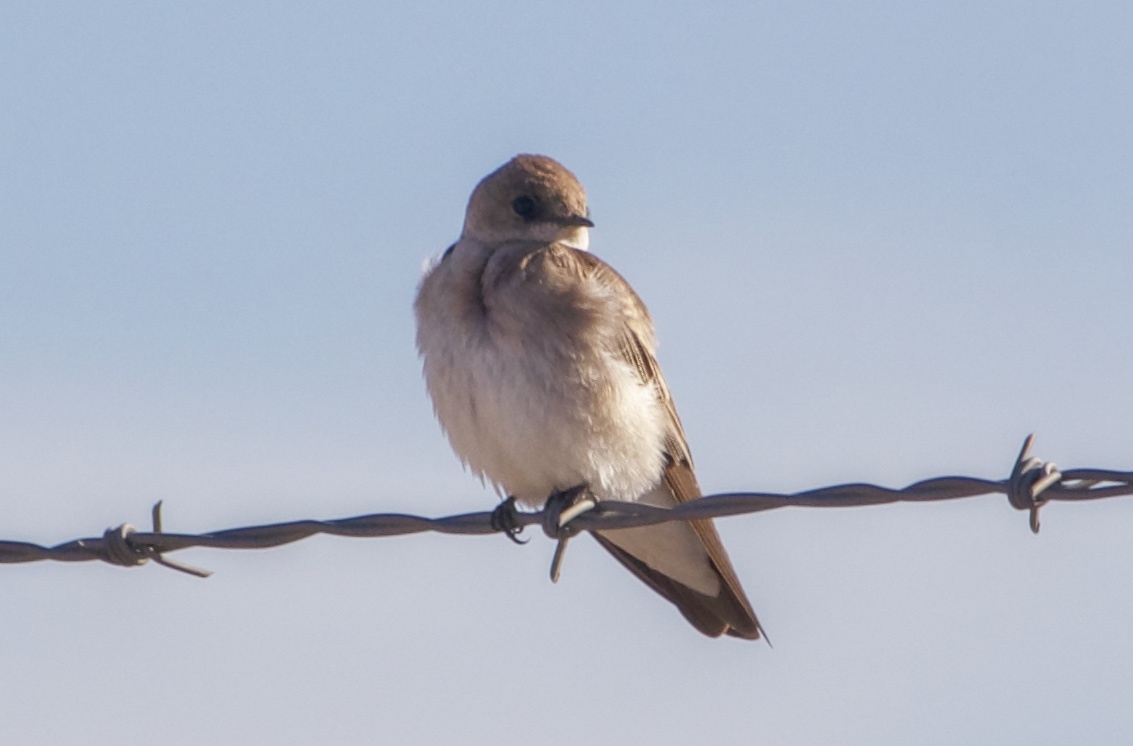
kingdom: Animalia
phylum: Chordata
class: Aves
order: Passeriformes
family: Hirundinidae
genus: Stelgidopteryx
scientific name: Stelgidopteryx serripennis
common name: Northern rough-winged swallow
